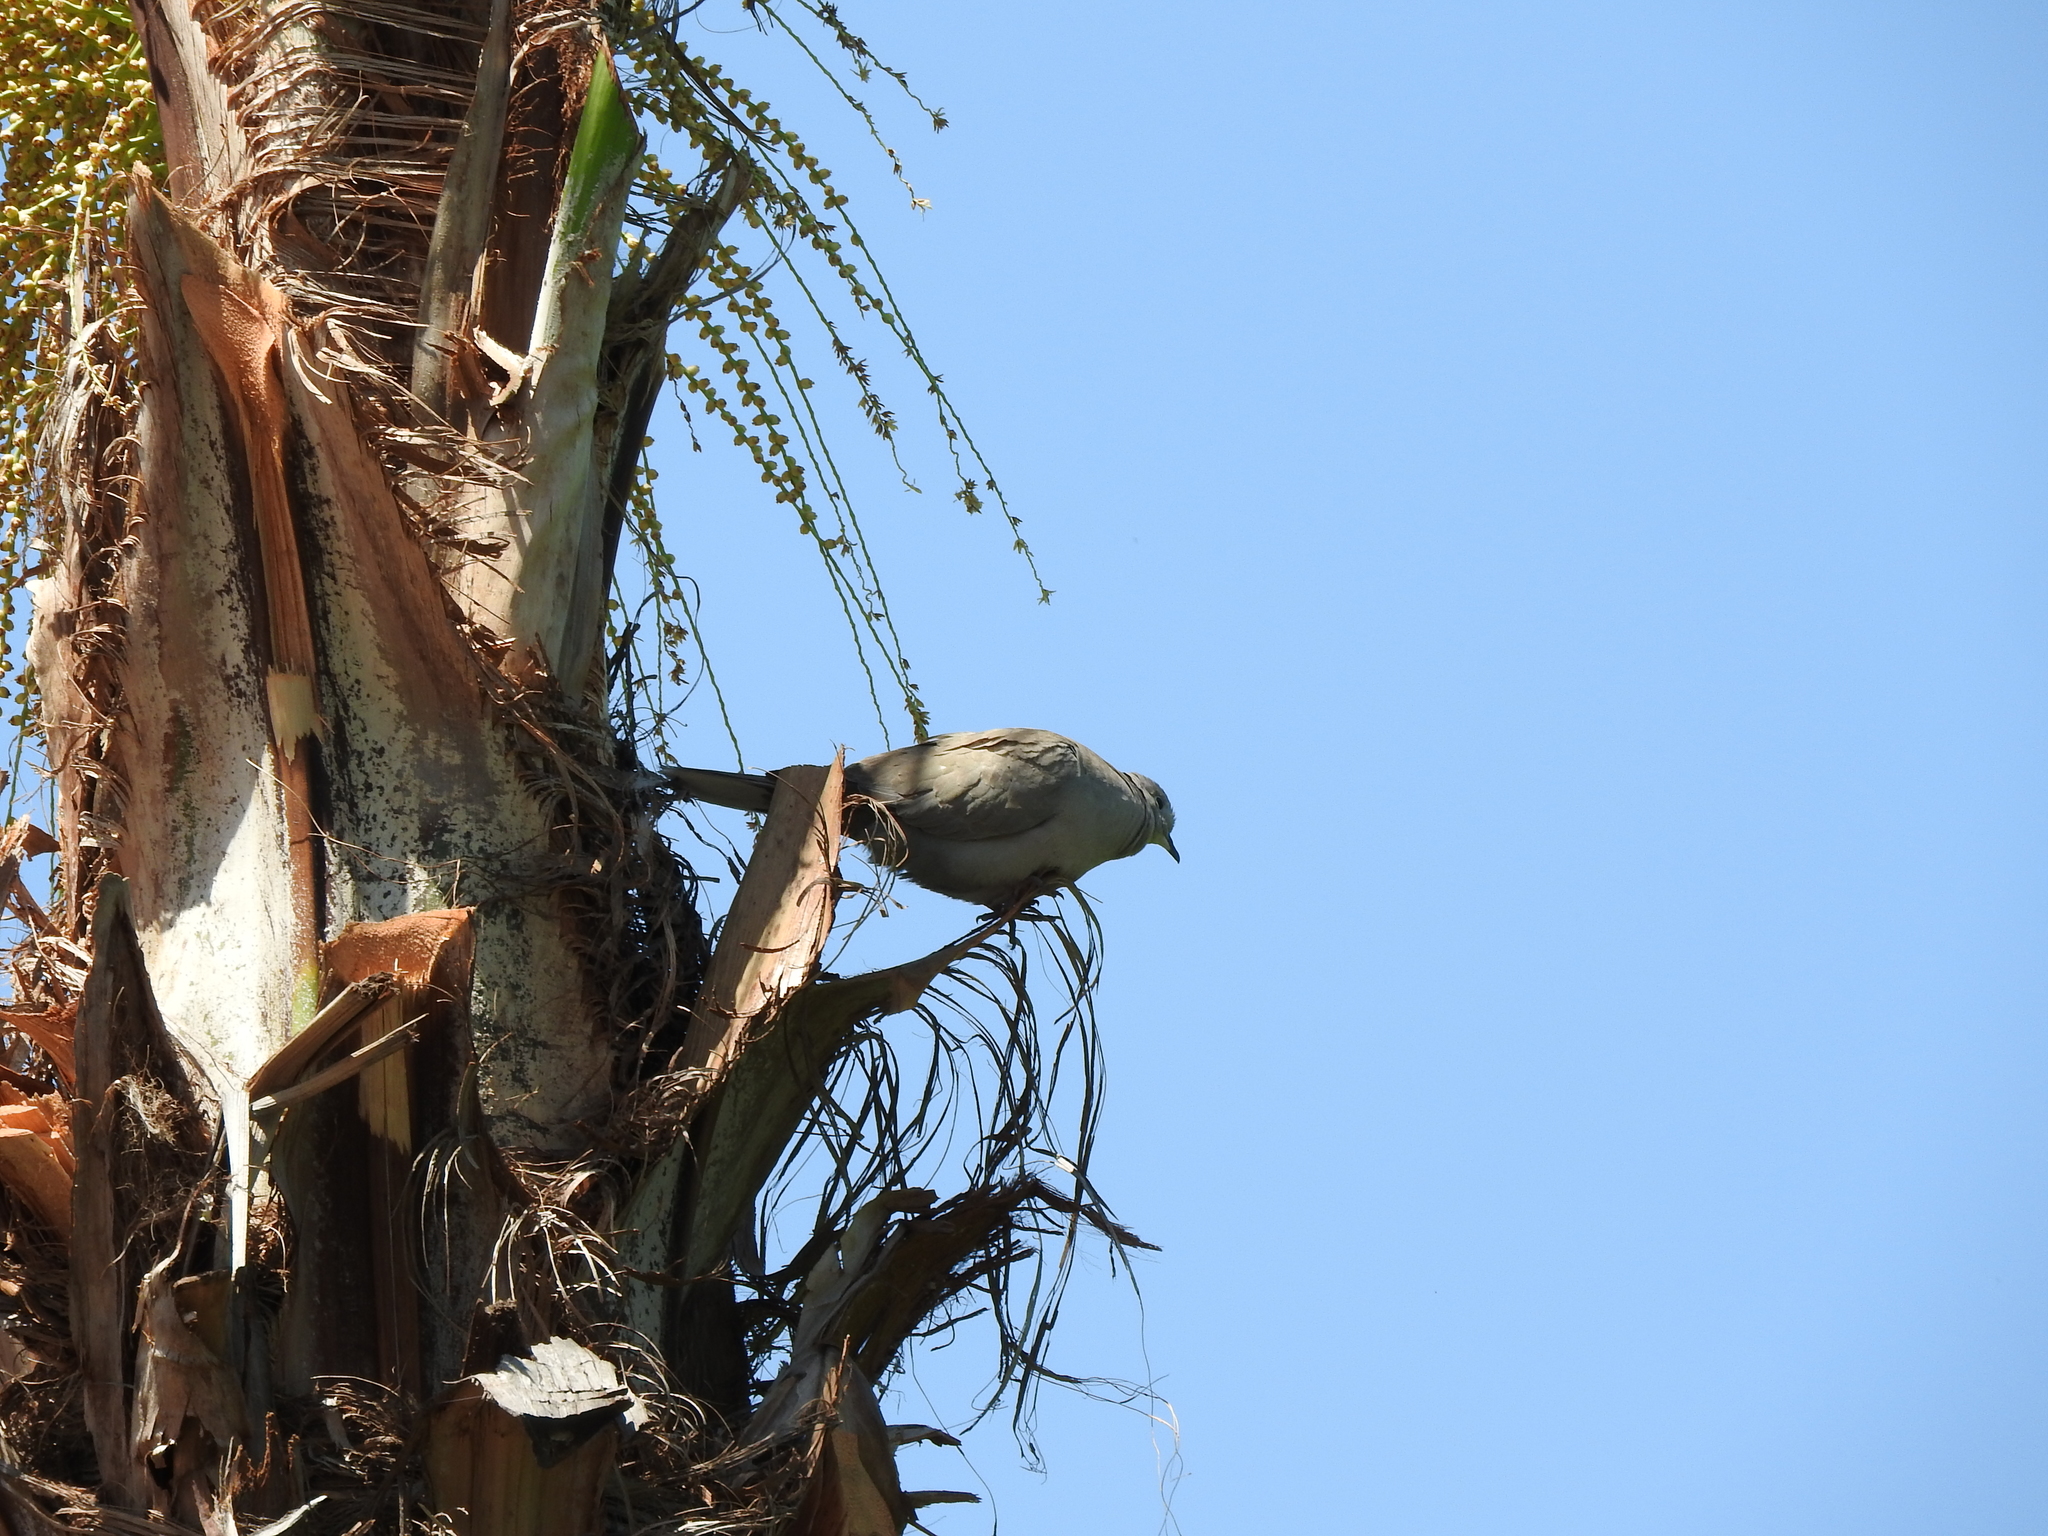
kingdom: Animalia
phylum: Chordata
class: Aves
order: Columbiformes
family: Columbidae
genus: Streptopelia
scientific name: Streptopelia decaocto
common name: Eurasian collared dove
